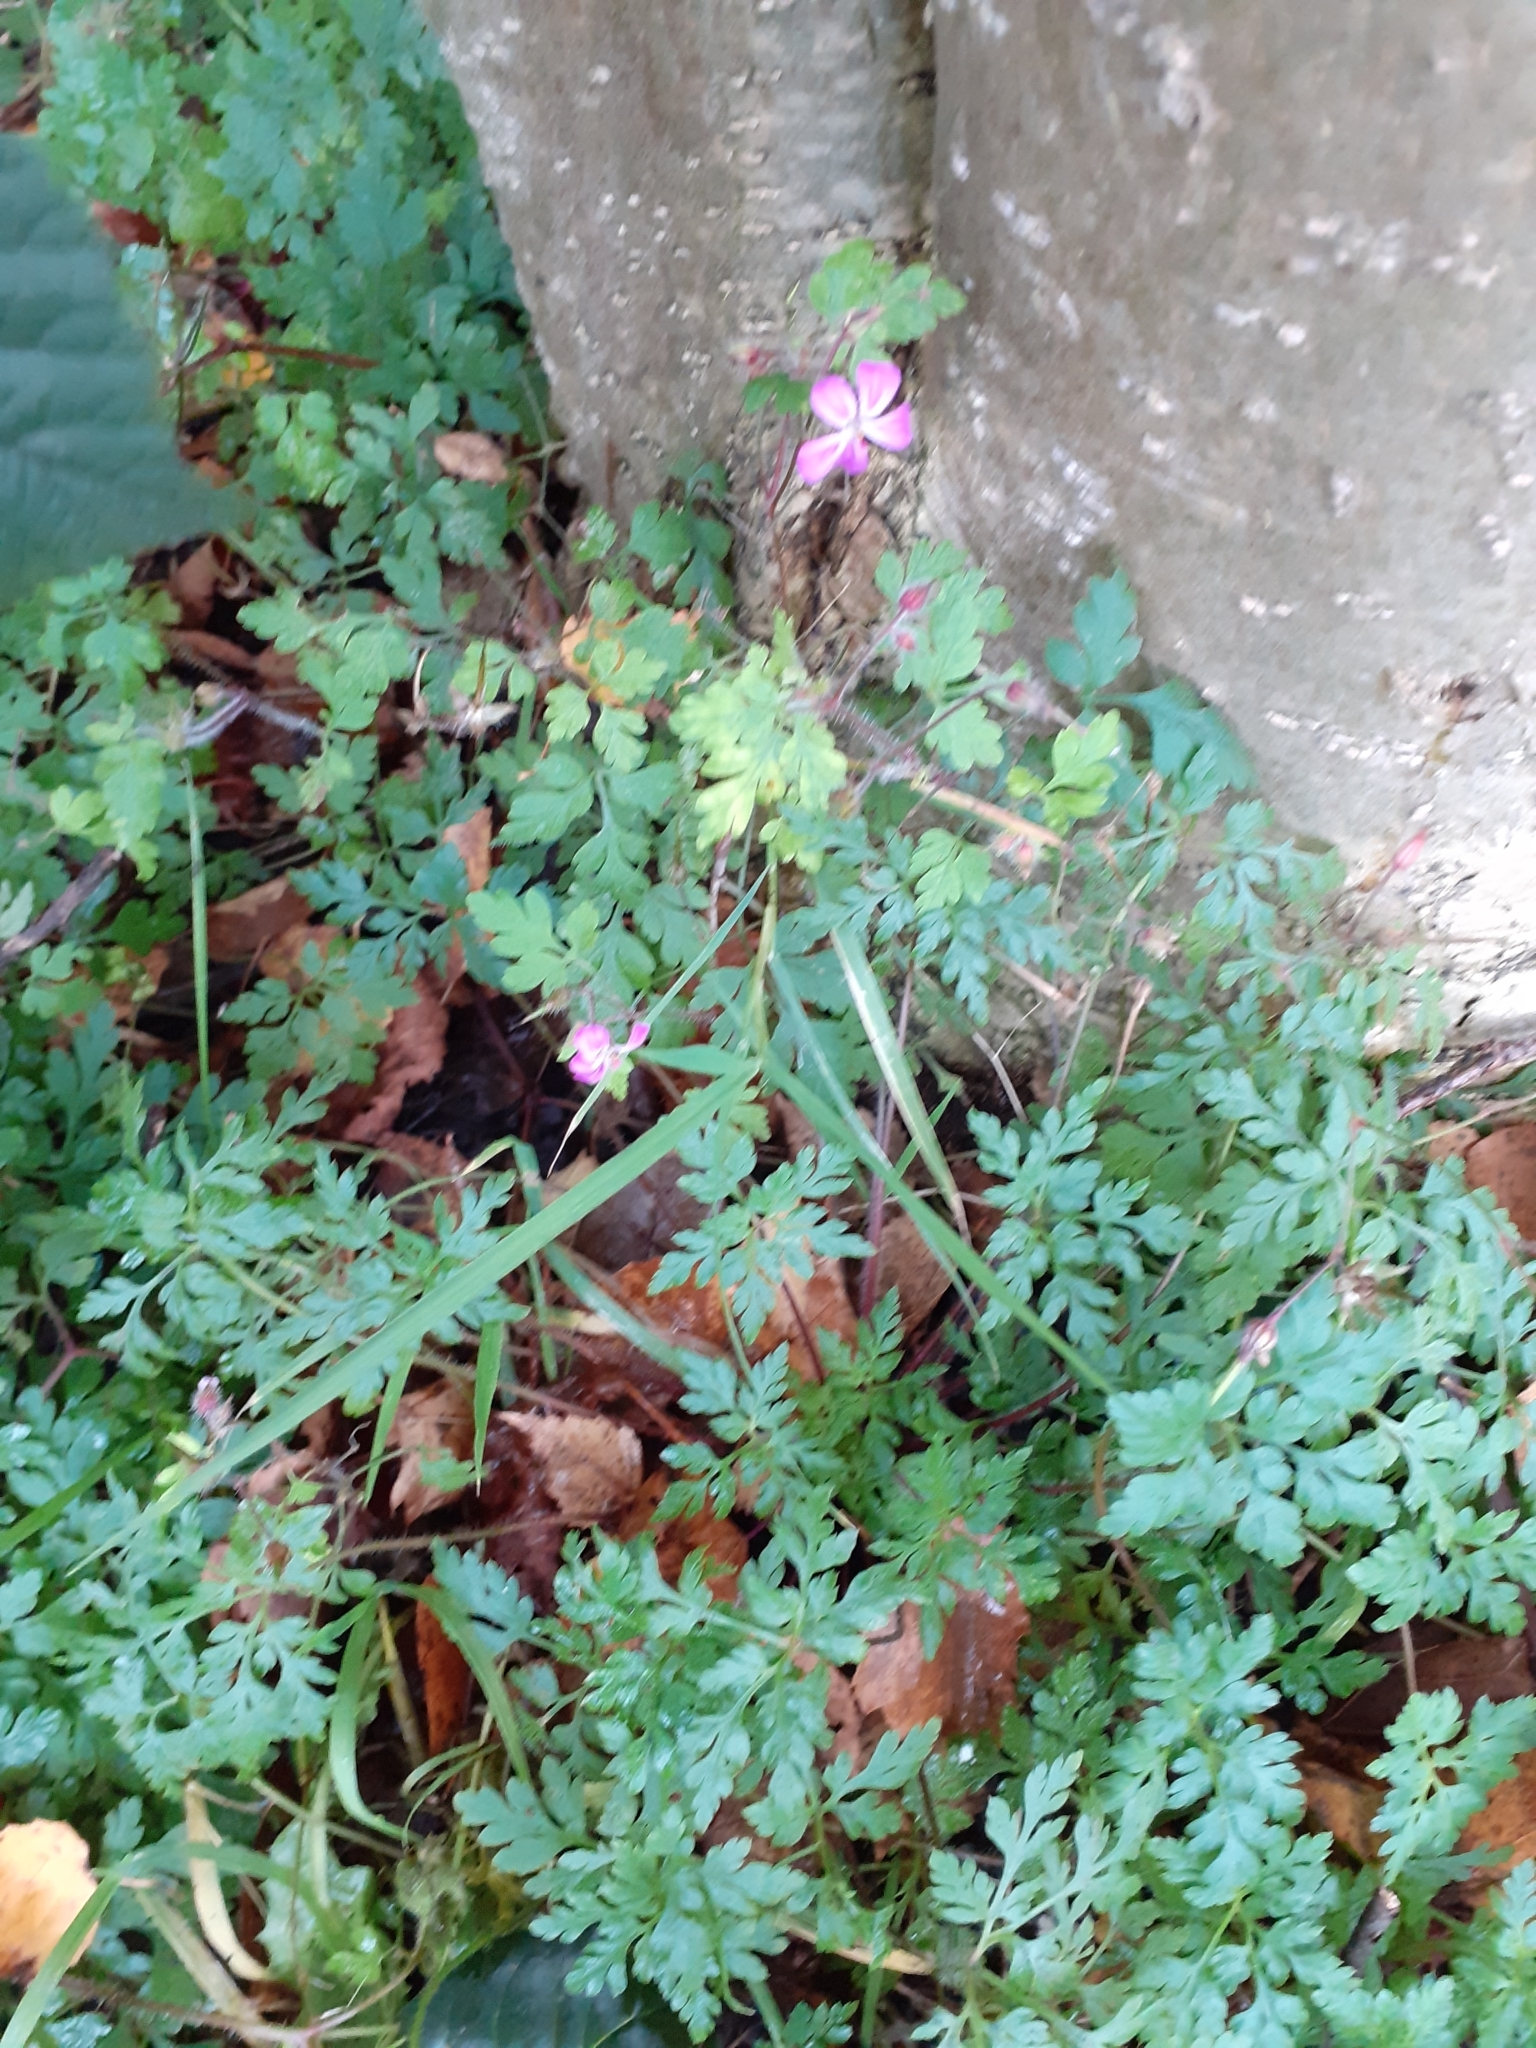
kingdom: Plantae
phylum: Tracheophyta
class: Magnoliopsida
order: Geraniales
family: Geraniaceae
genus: Geranium
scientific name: Geranium robertianum
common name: Herb-robert
